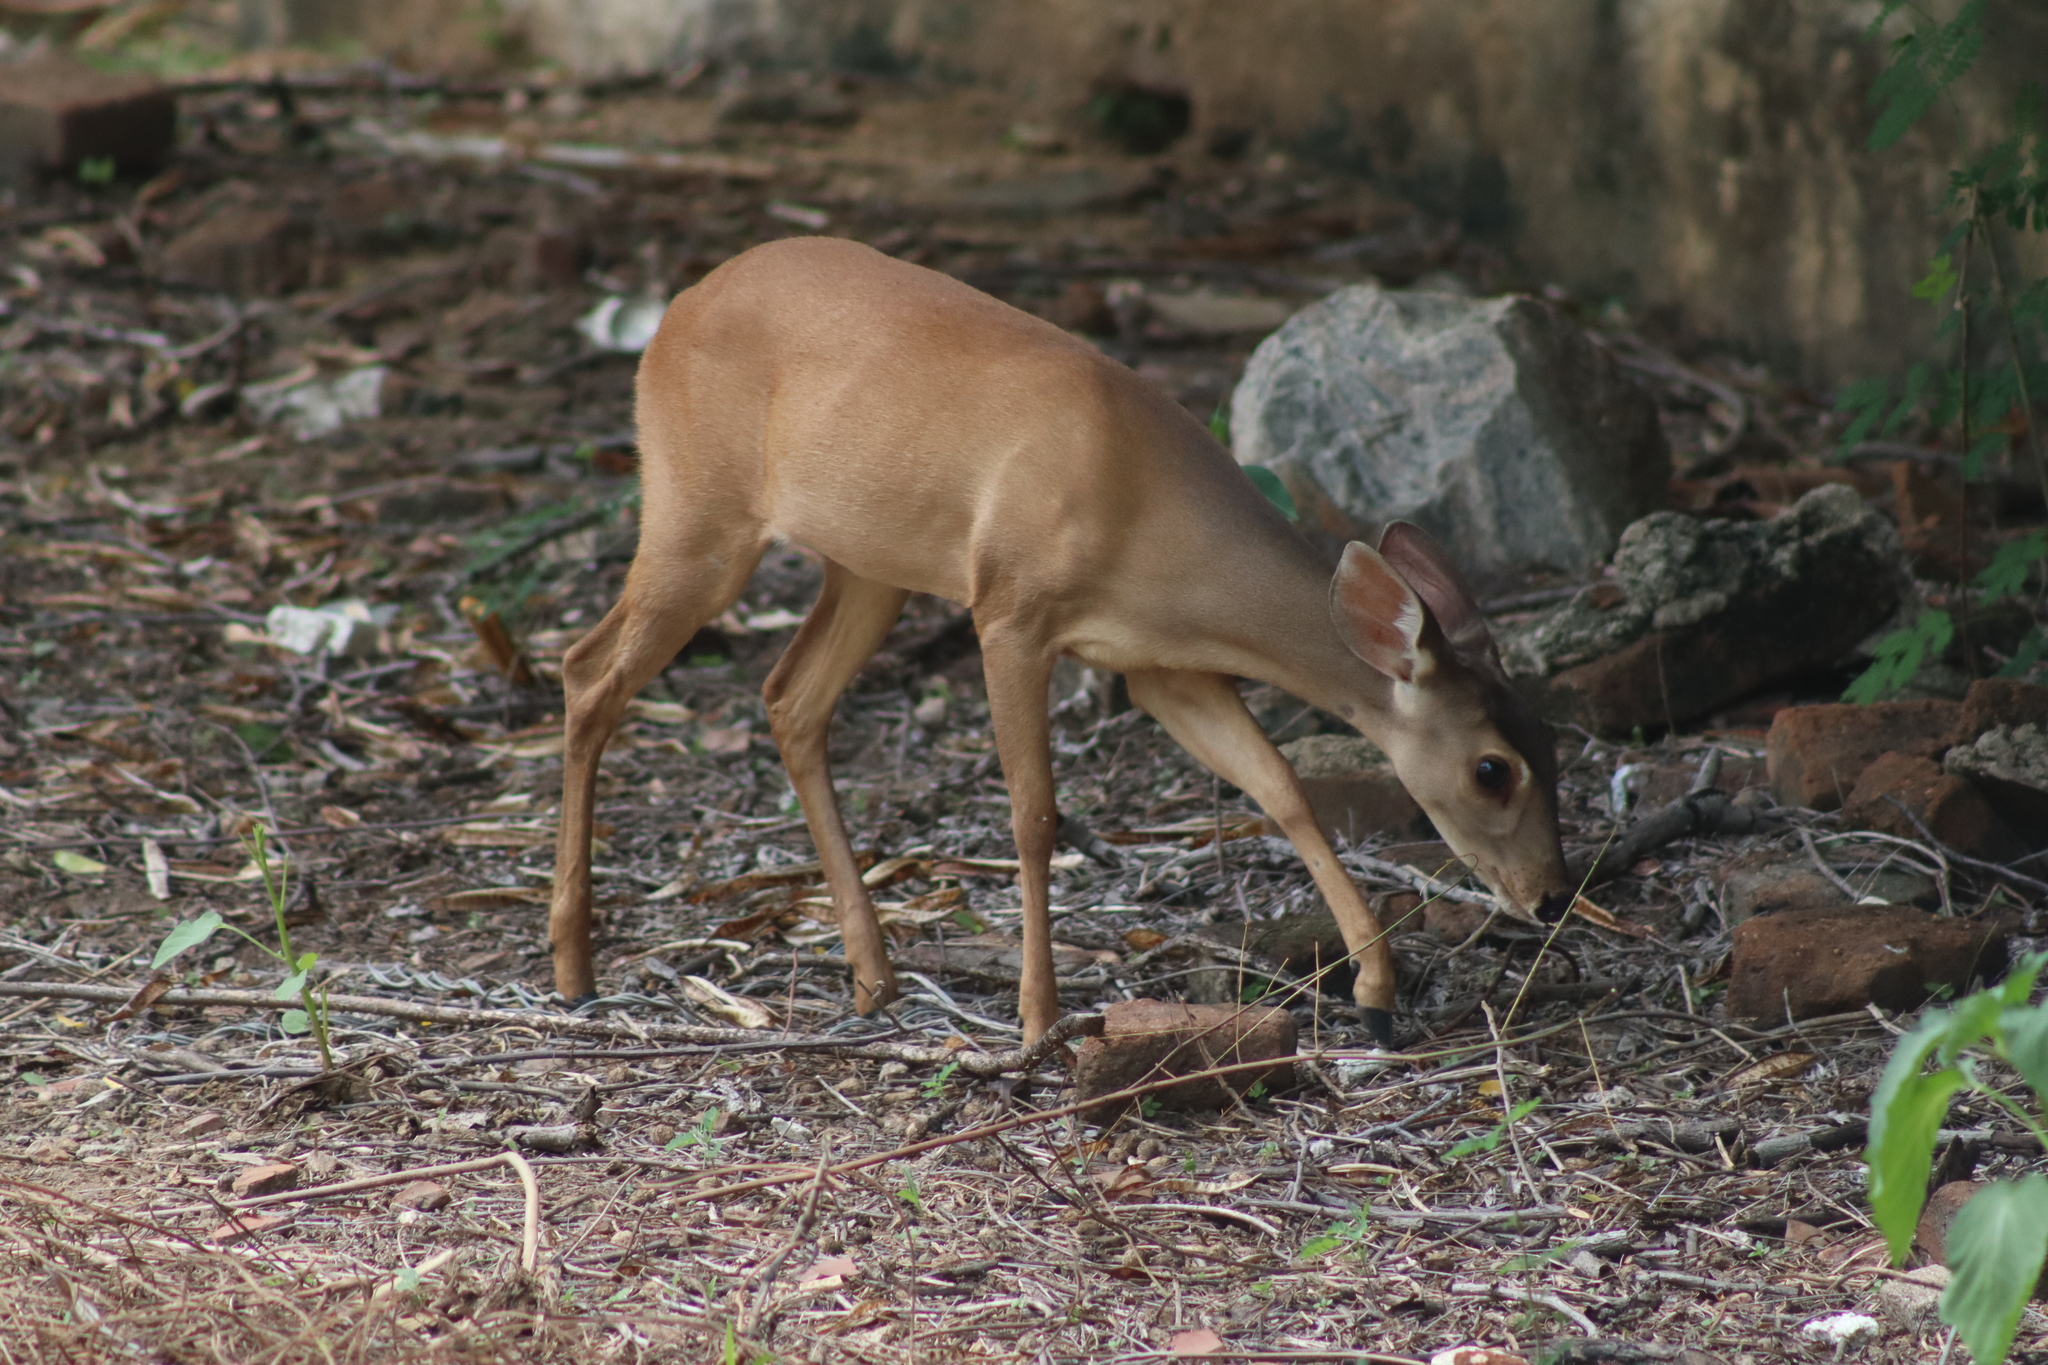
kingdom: Animalia
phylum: Chordata
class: Mammalia
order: Artiodactyla
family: Cervidae
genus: Mazama
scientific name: Mazama gouazoubira
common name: Gray brocket
